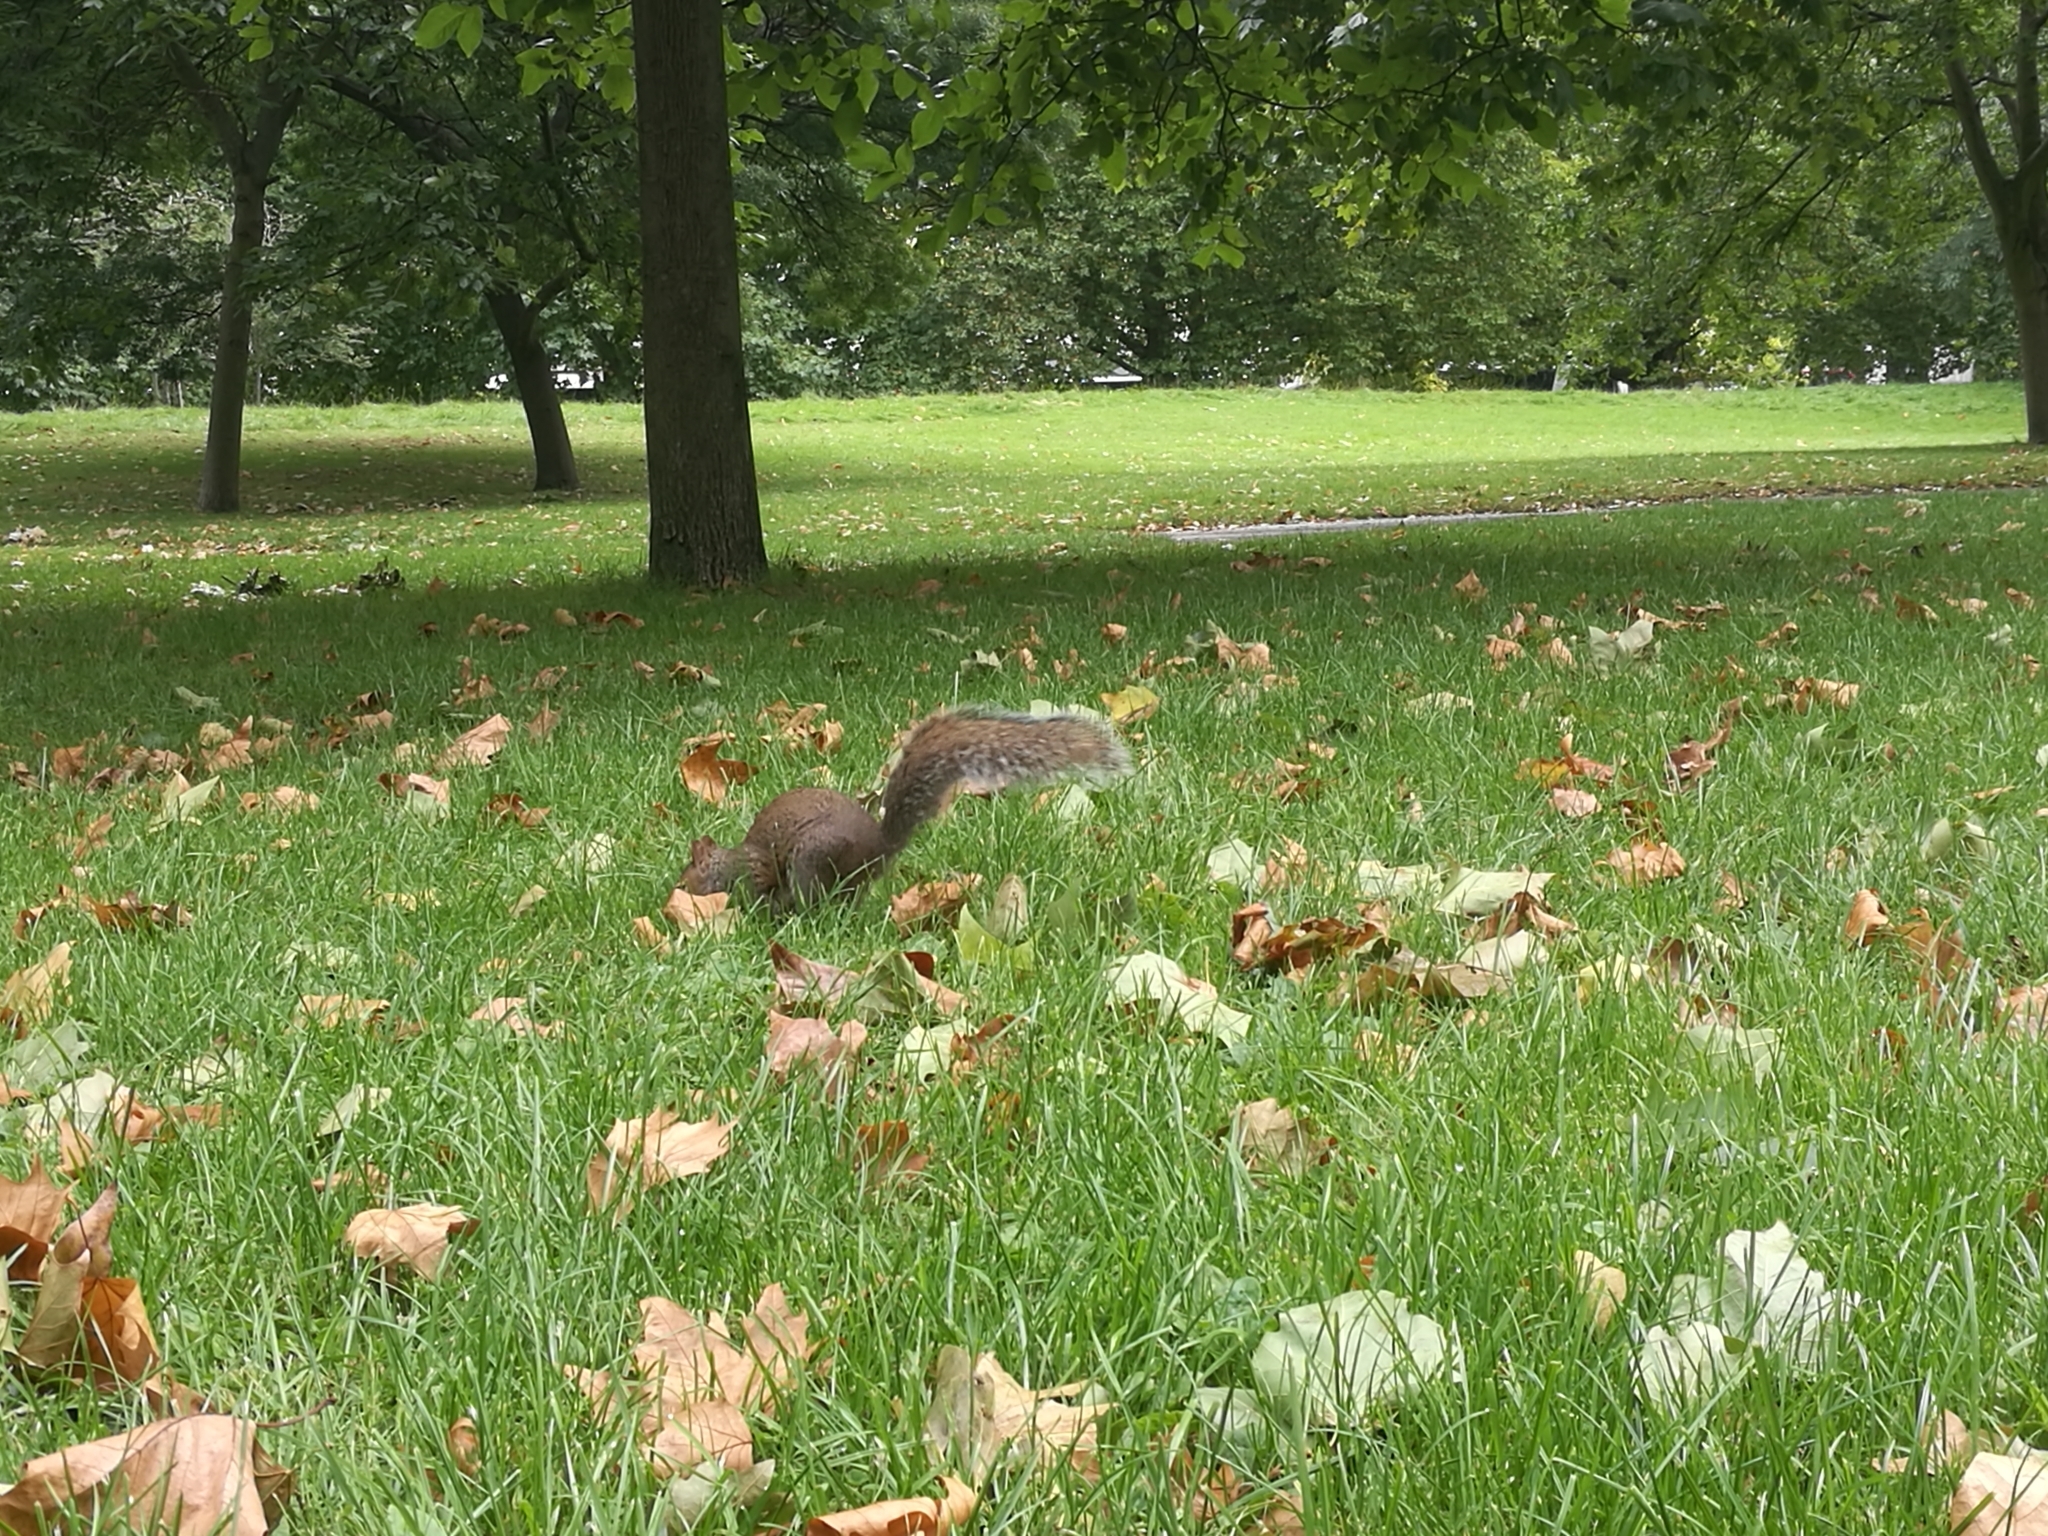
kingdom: Animalia
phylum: Chordata
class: Mammalia
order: Rodentia
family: Sciuridae
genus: Sciurus
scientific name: Sciurus carolinensis
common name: Eastern gray squirrel
